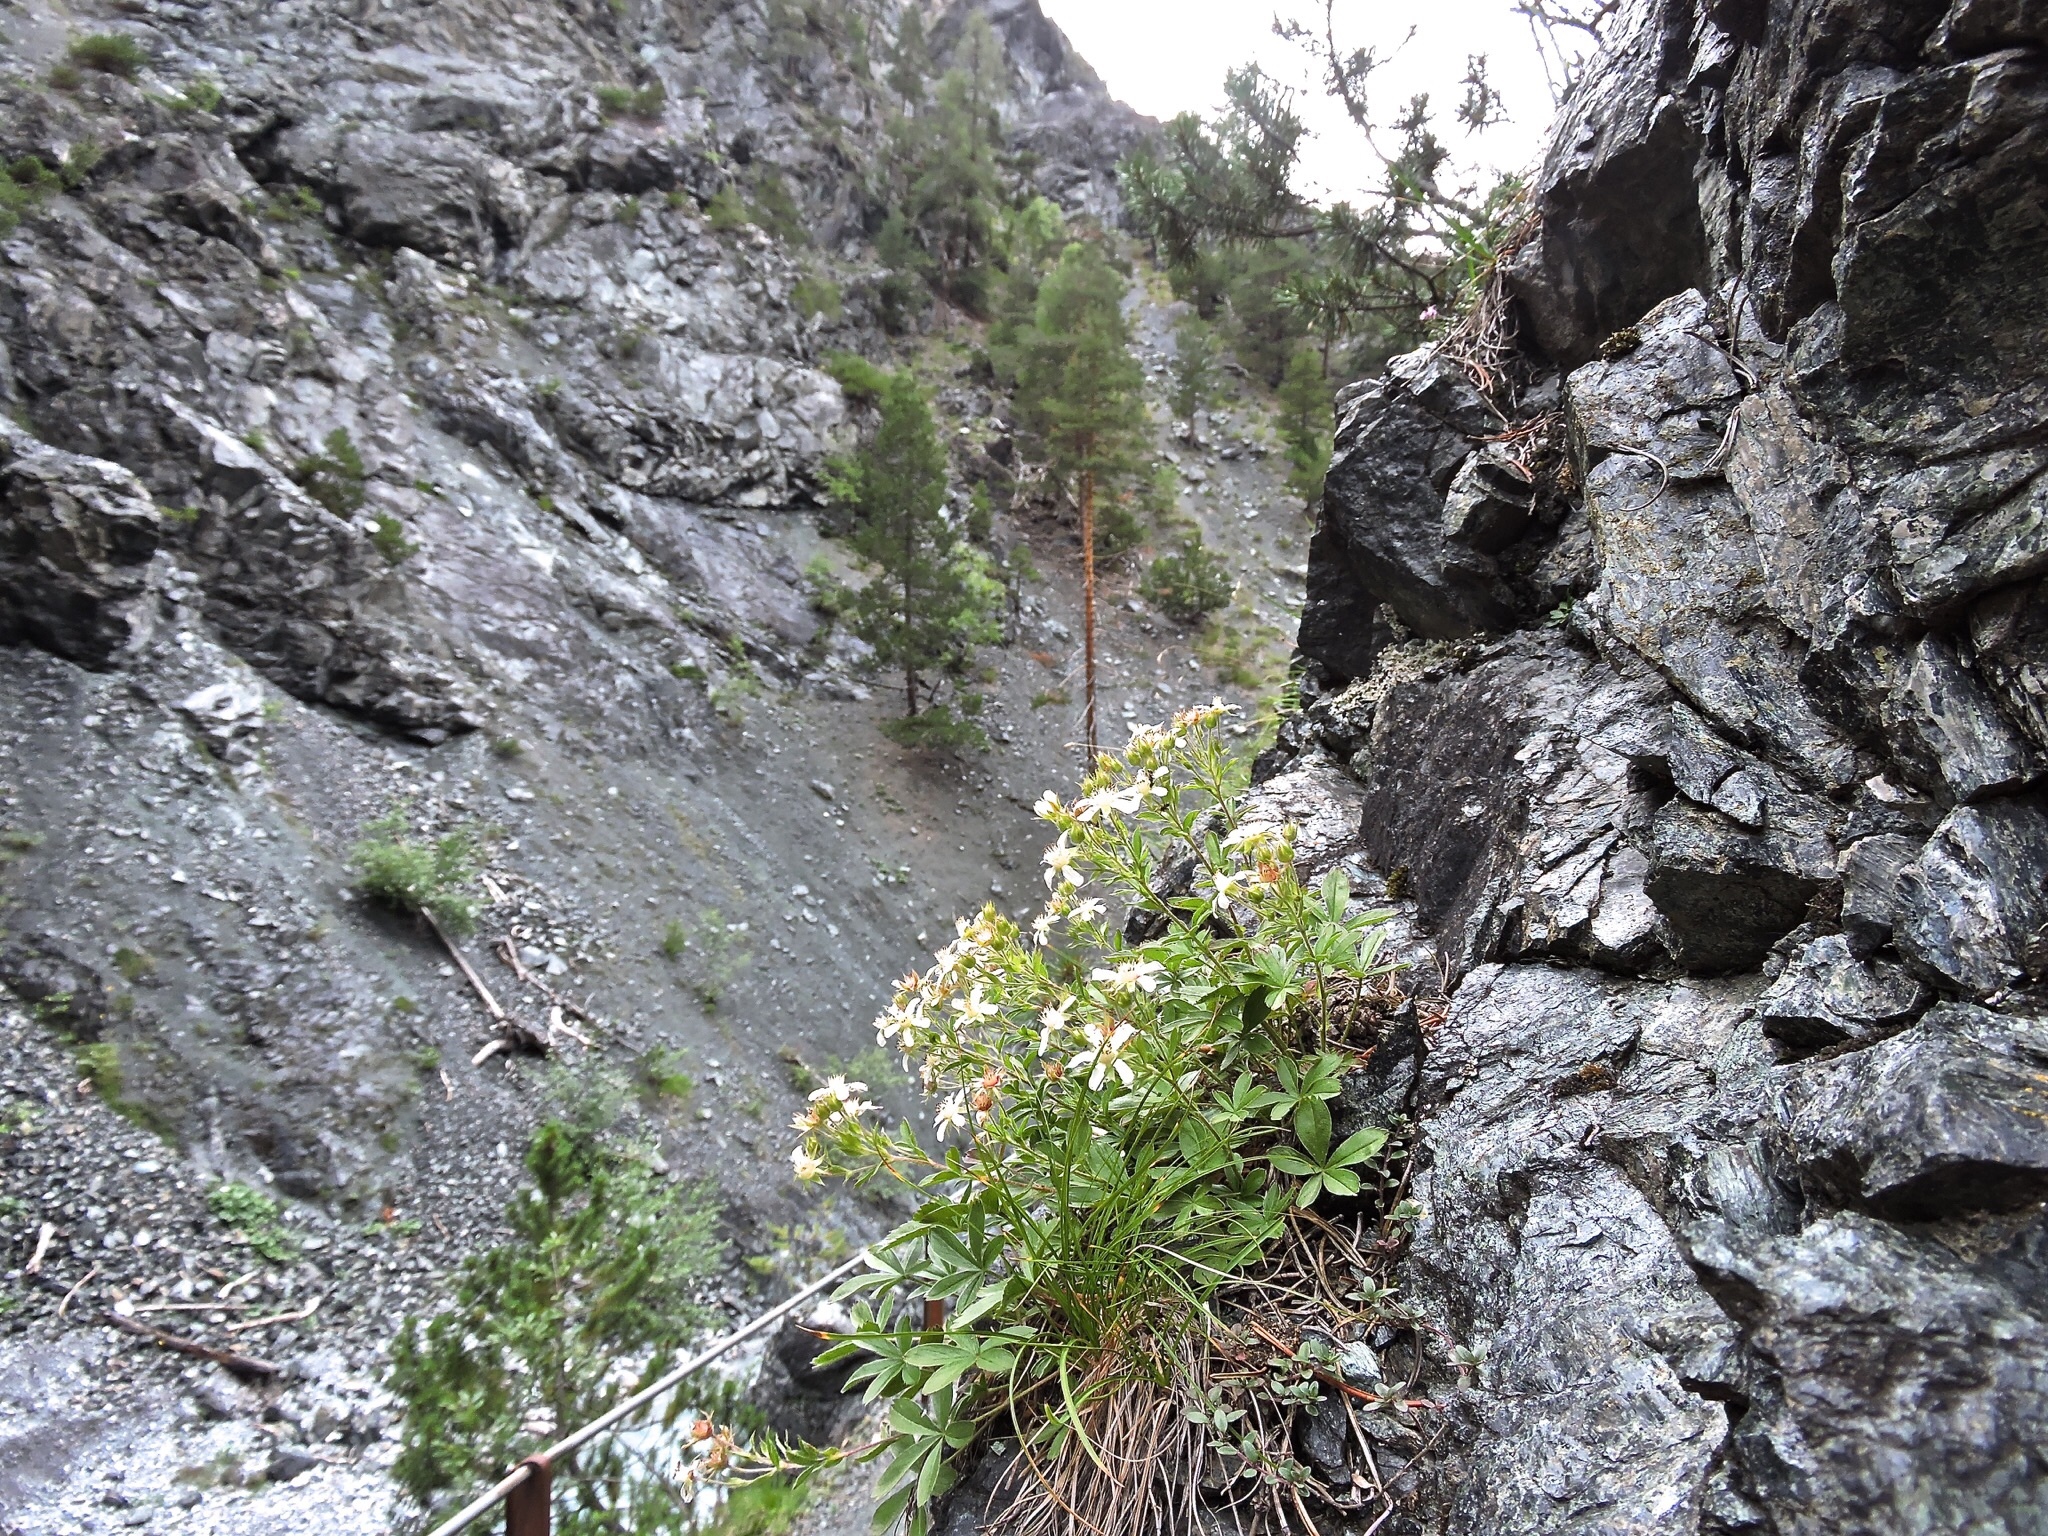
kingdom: Plantae
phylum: Tracheophyta
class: Magnoliopsida
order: Rosales
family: Rosaceae
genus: Potentilla
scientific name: Potentilla caulescens
